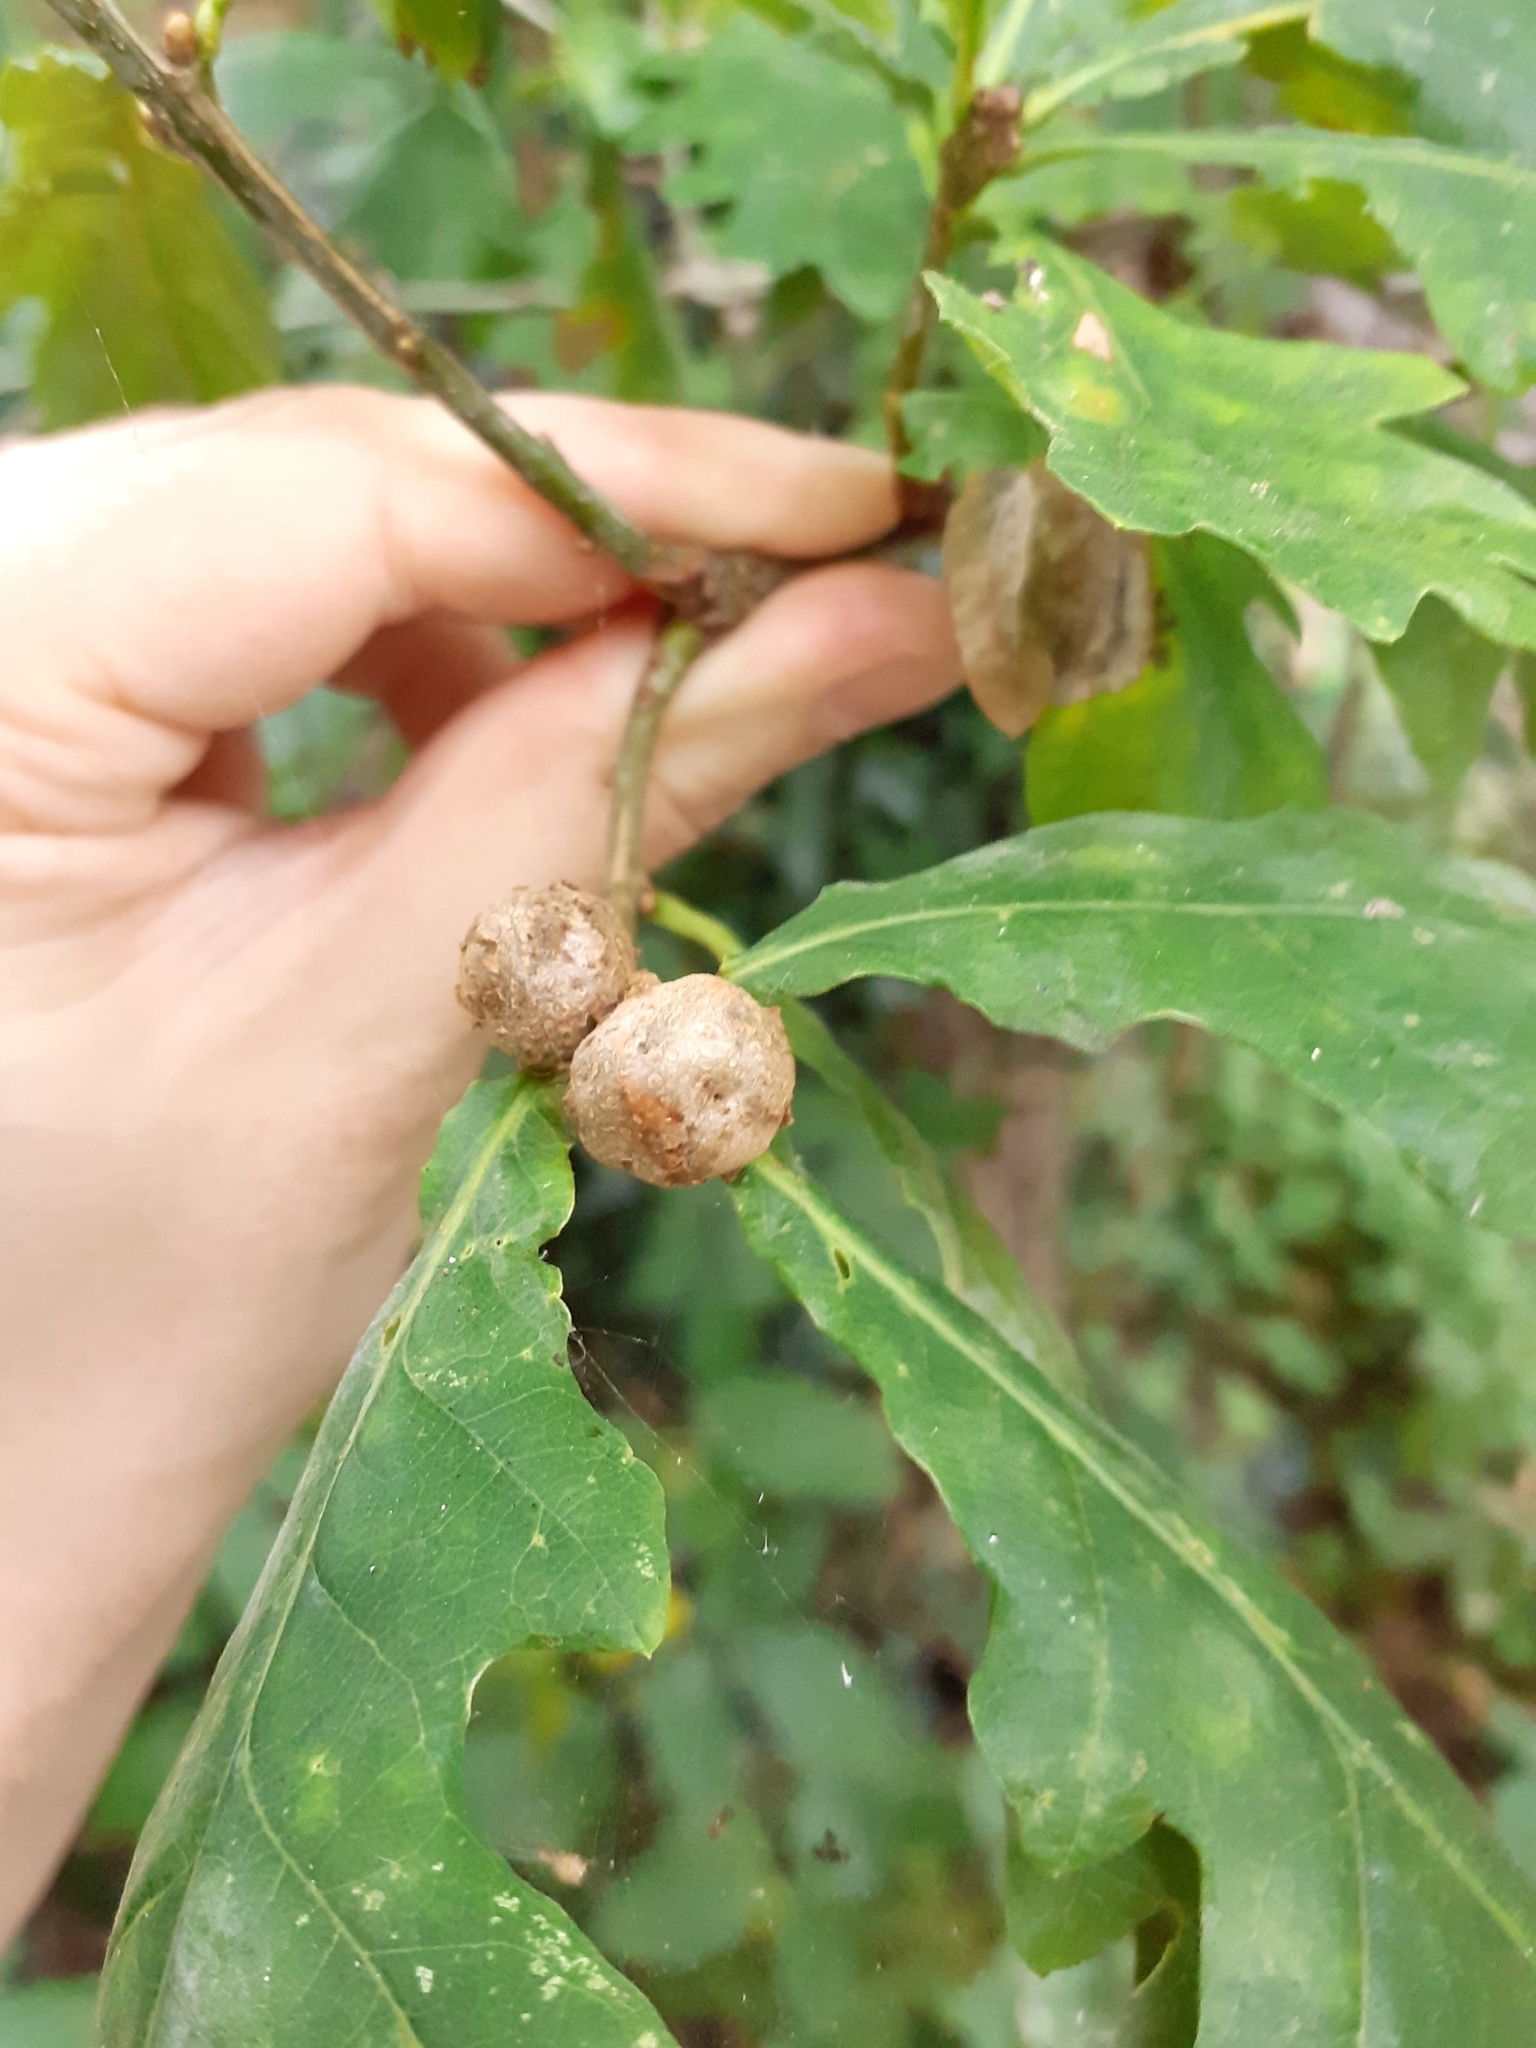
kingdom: Animalia
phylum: Arthropoda
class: Insecta
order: Hymenoptera
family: Cynipidae
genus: Andricus
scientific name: Andricus lignicolus
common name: Cola-nut gall
